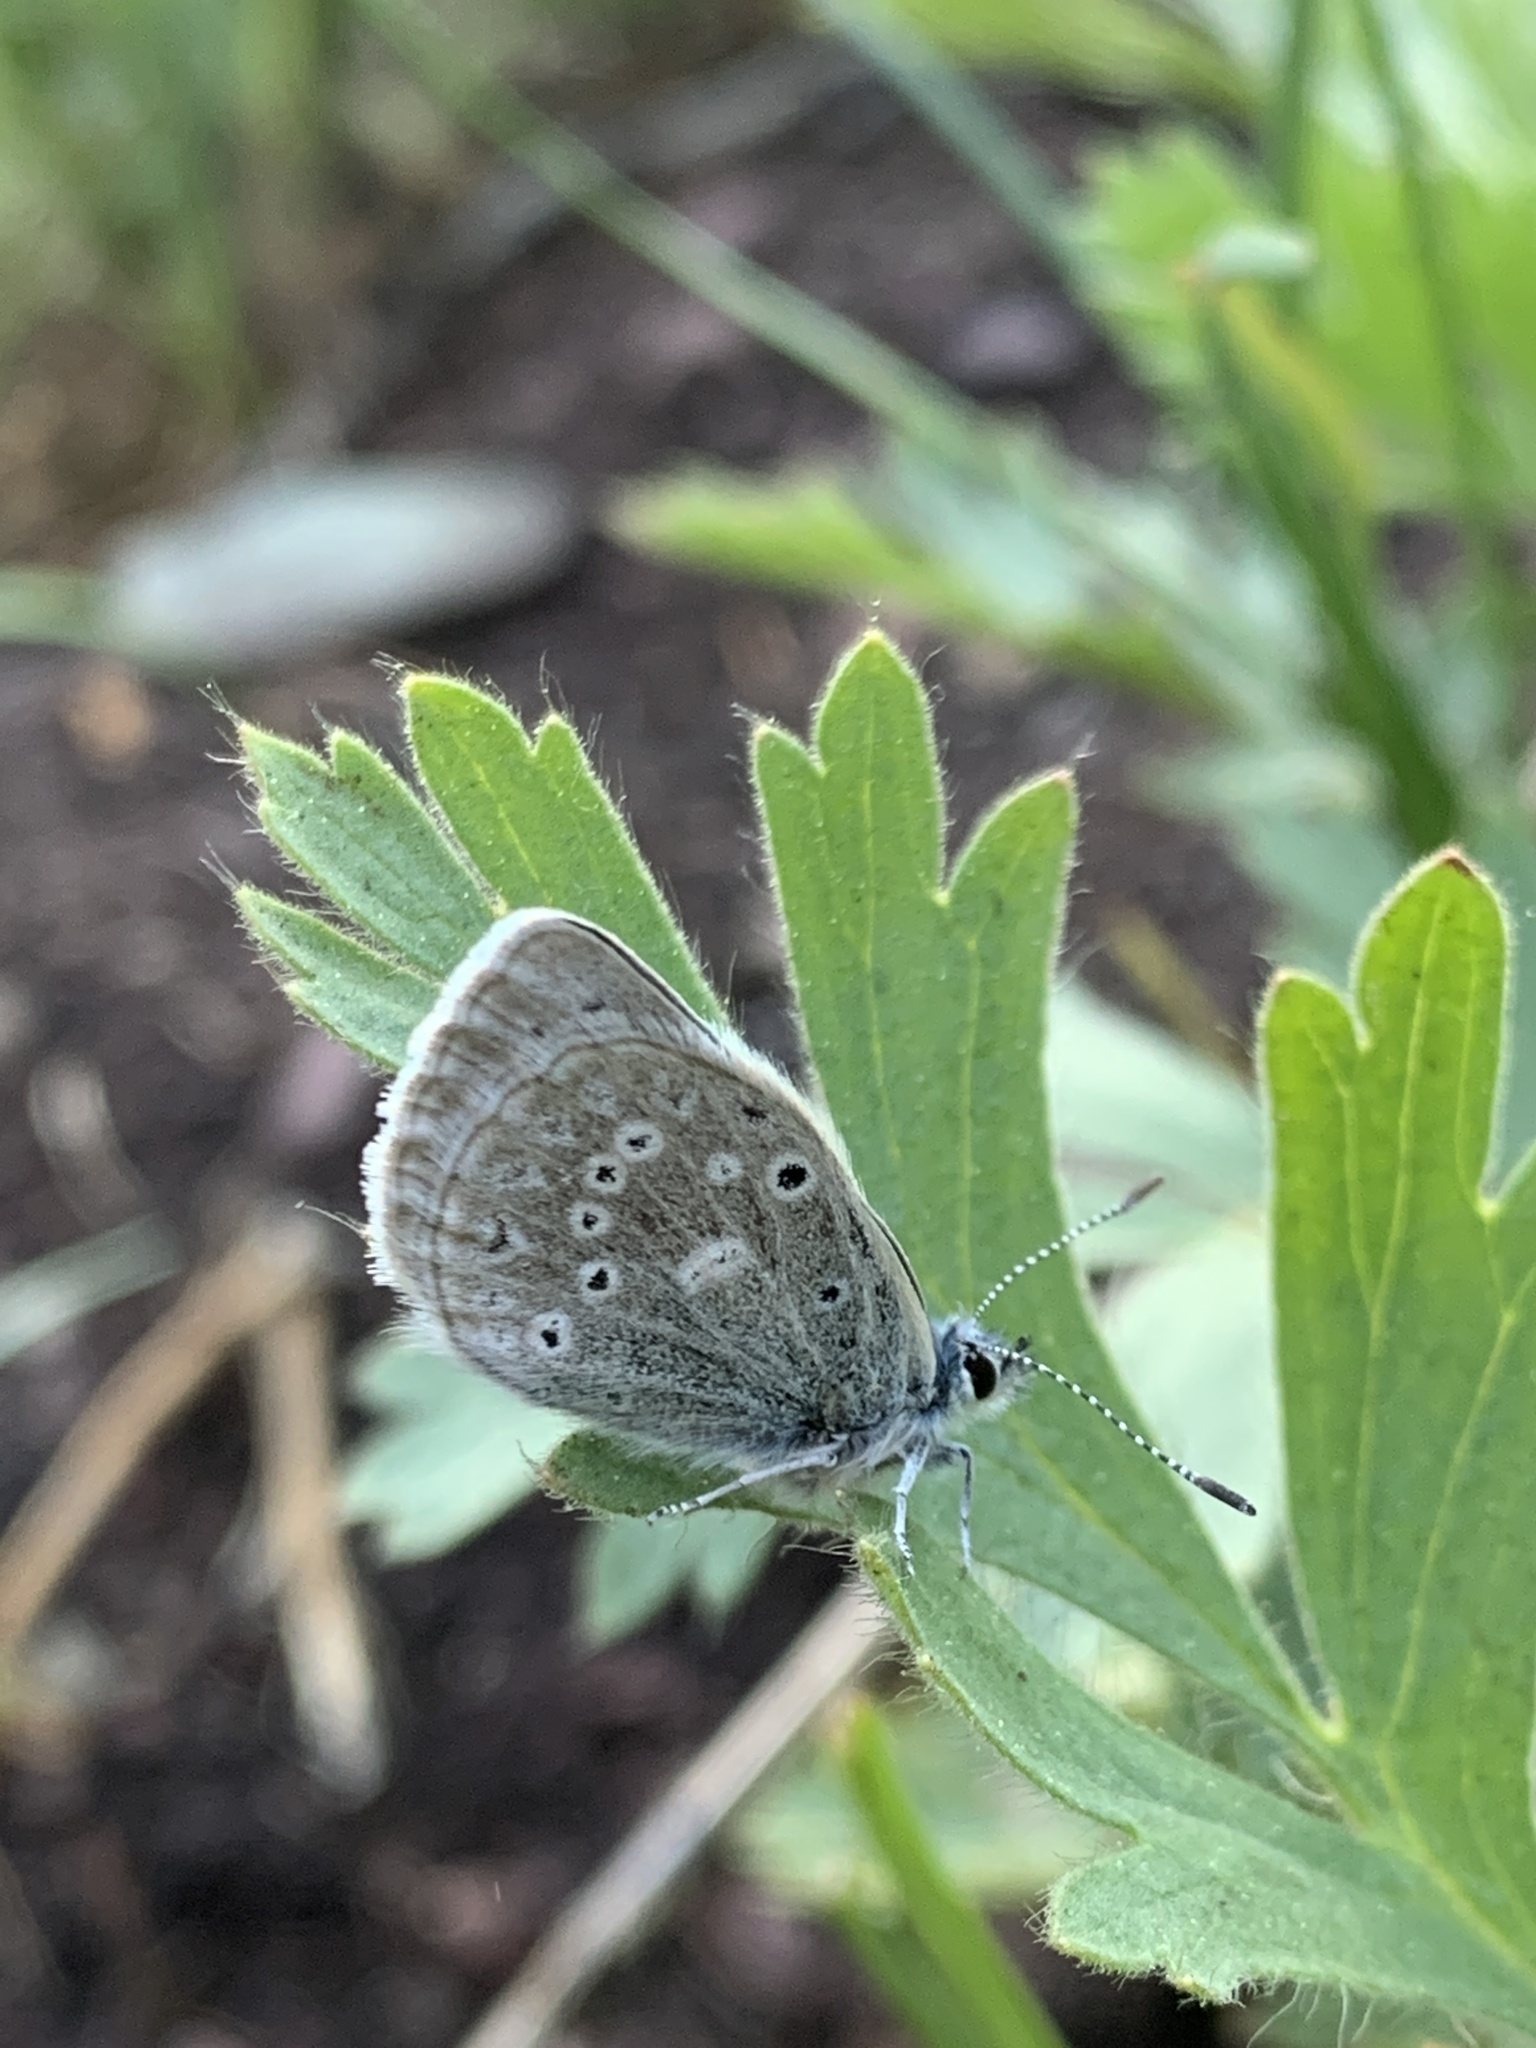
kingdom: Animalia
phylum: Arthropoda
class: Insecta
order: Lepidoptera
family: Lycaenidae
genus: Icaricia
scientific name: Icaricia icarioides
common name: Boisduval's blue
